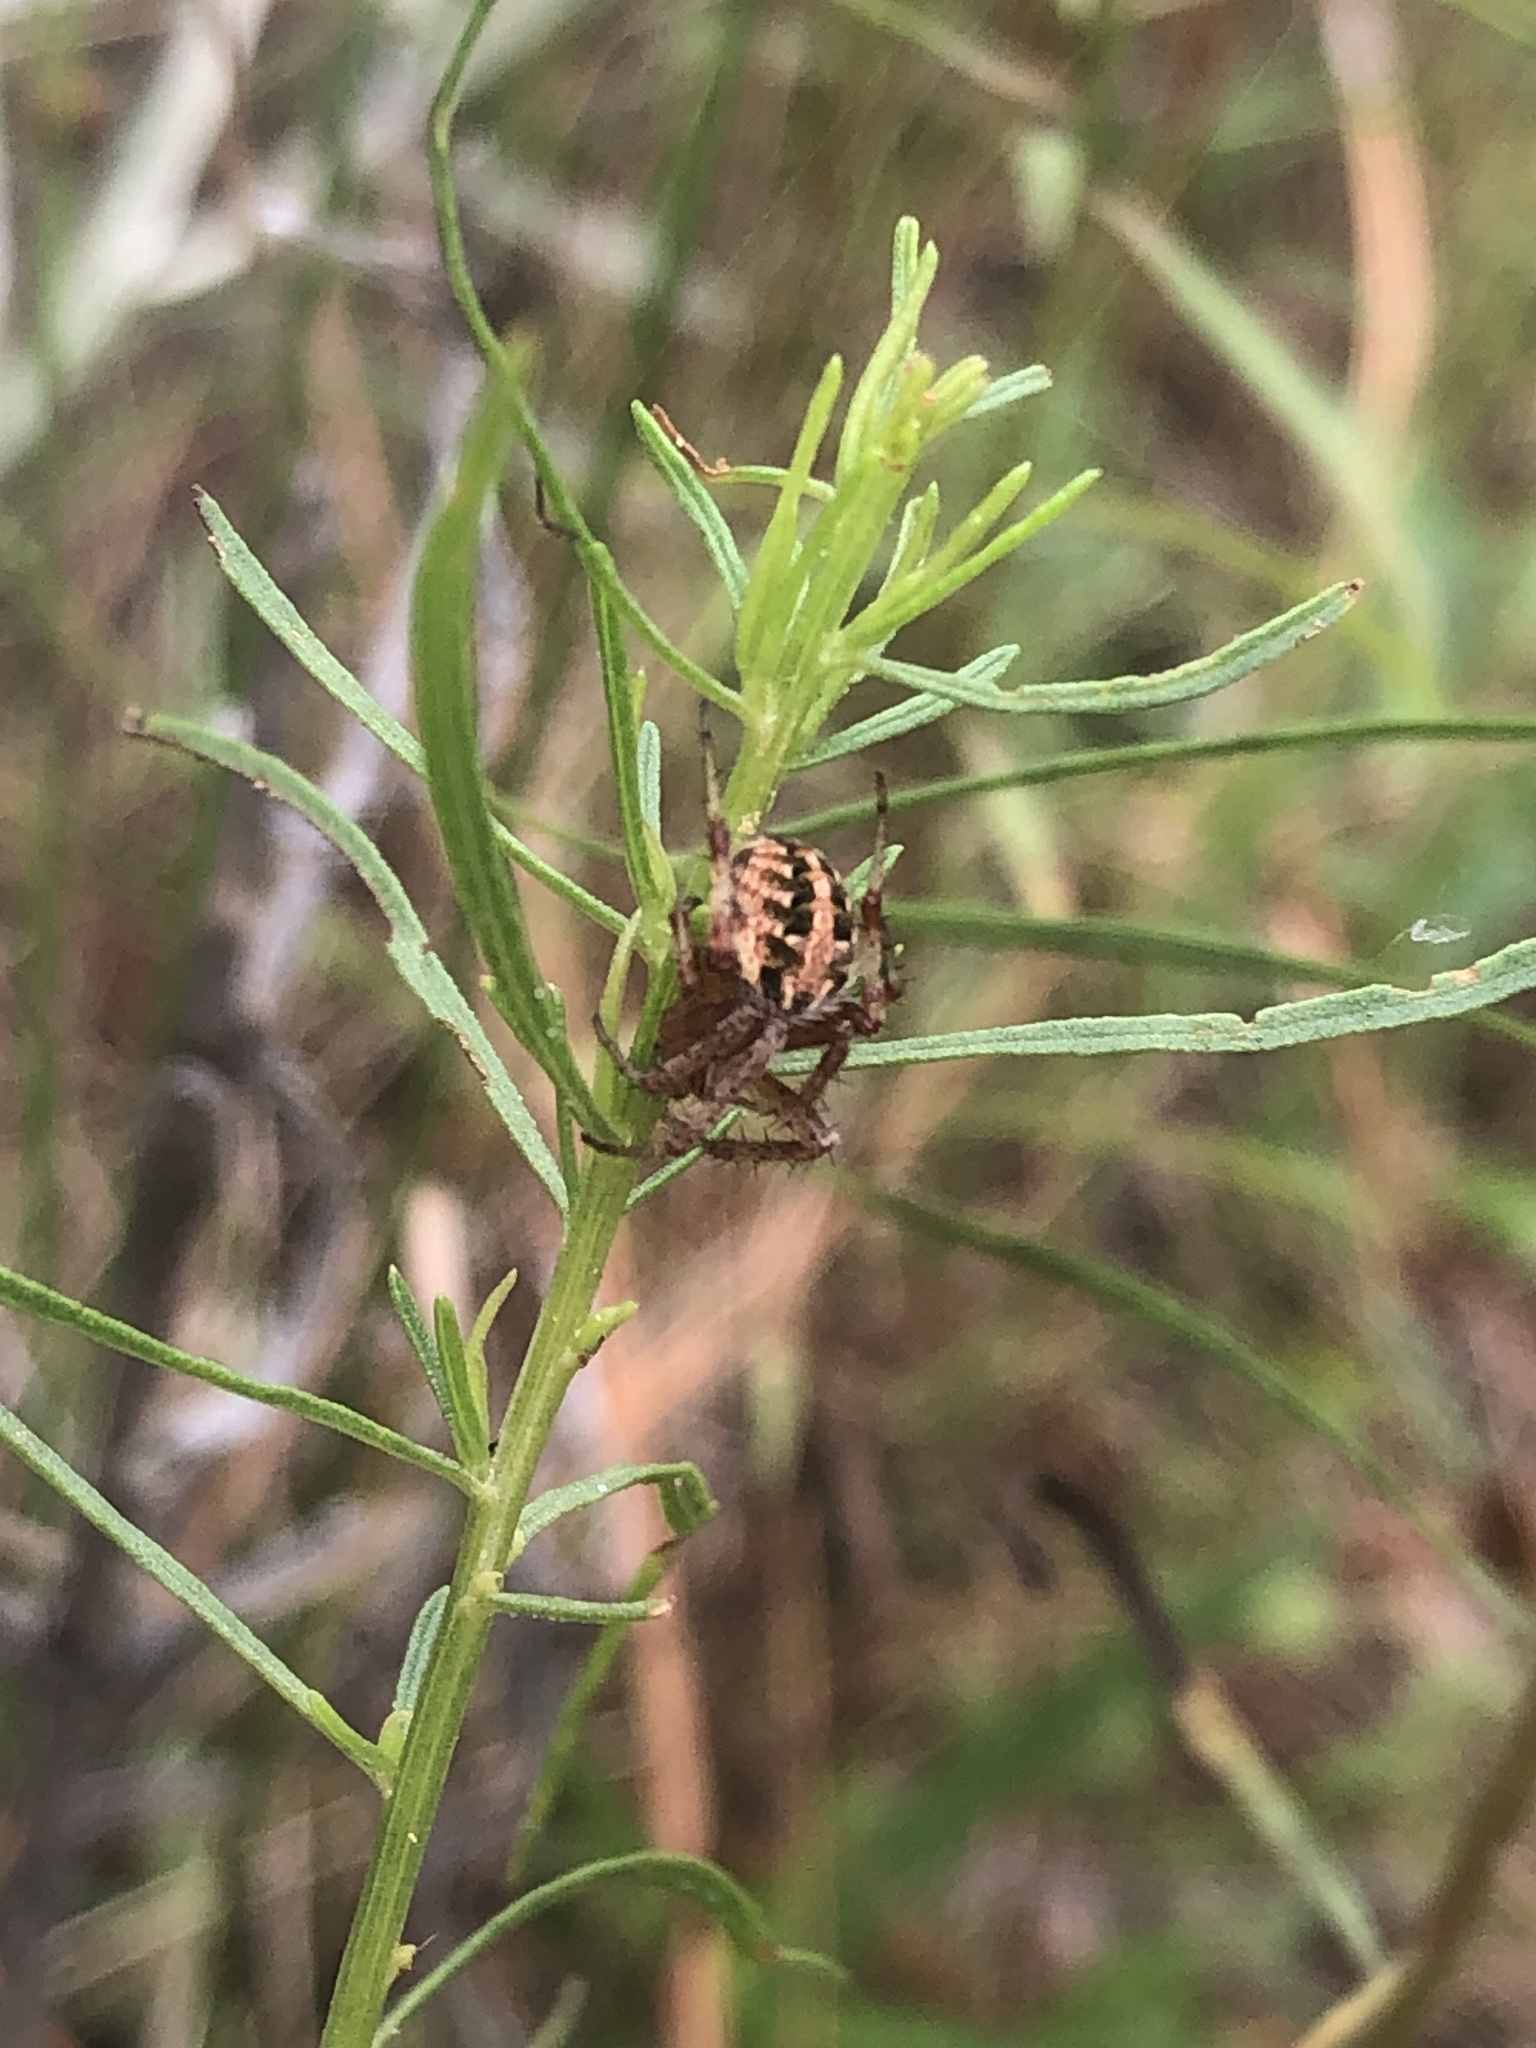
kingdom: Animalia
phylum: Arthropoda
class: Arachnida
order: Araneae
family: Araneidae
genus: Neoscona
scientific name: Neoscona arabesca
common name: Orb weavers
